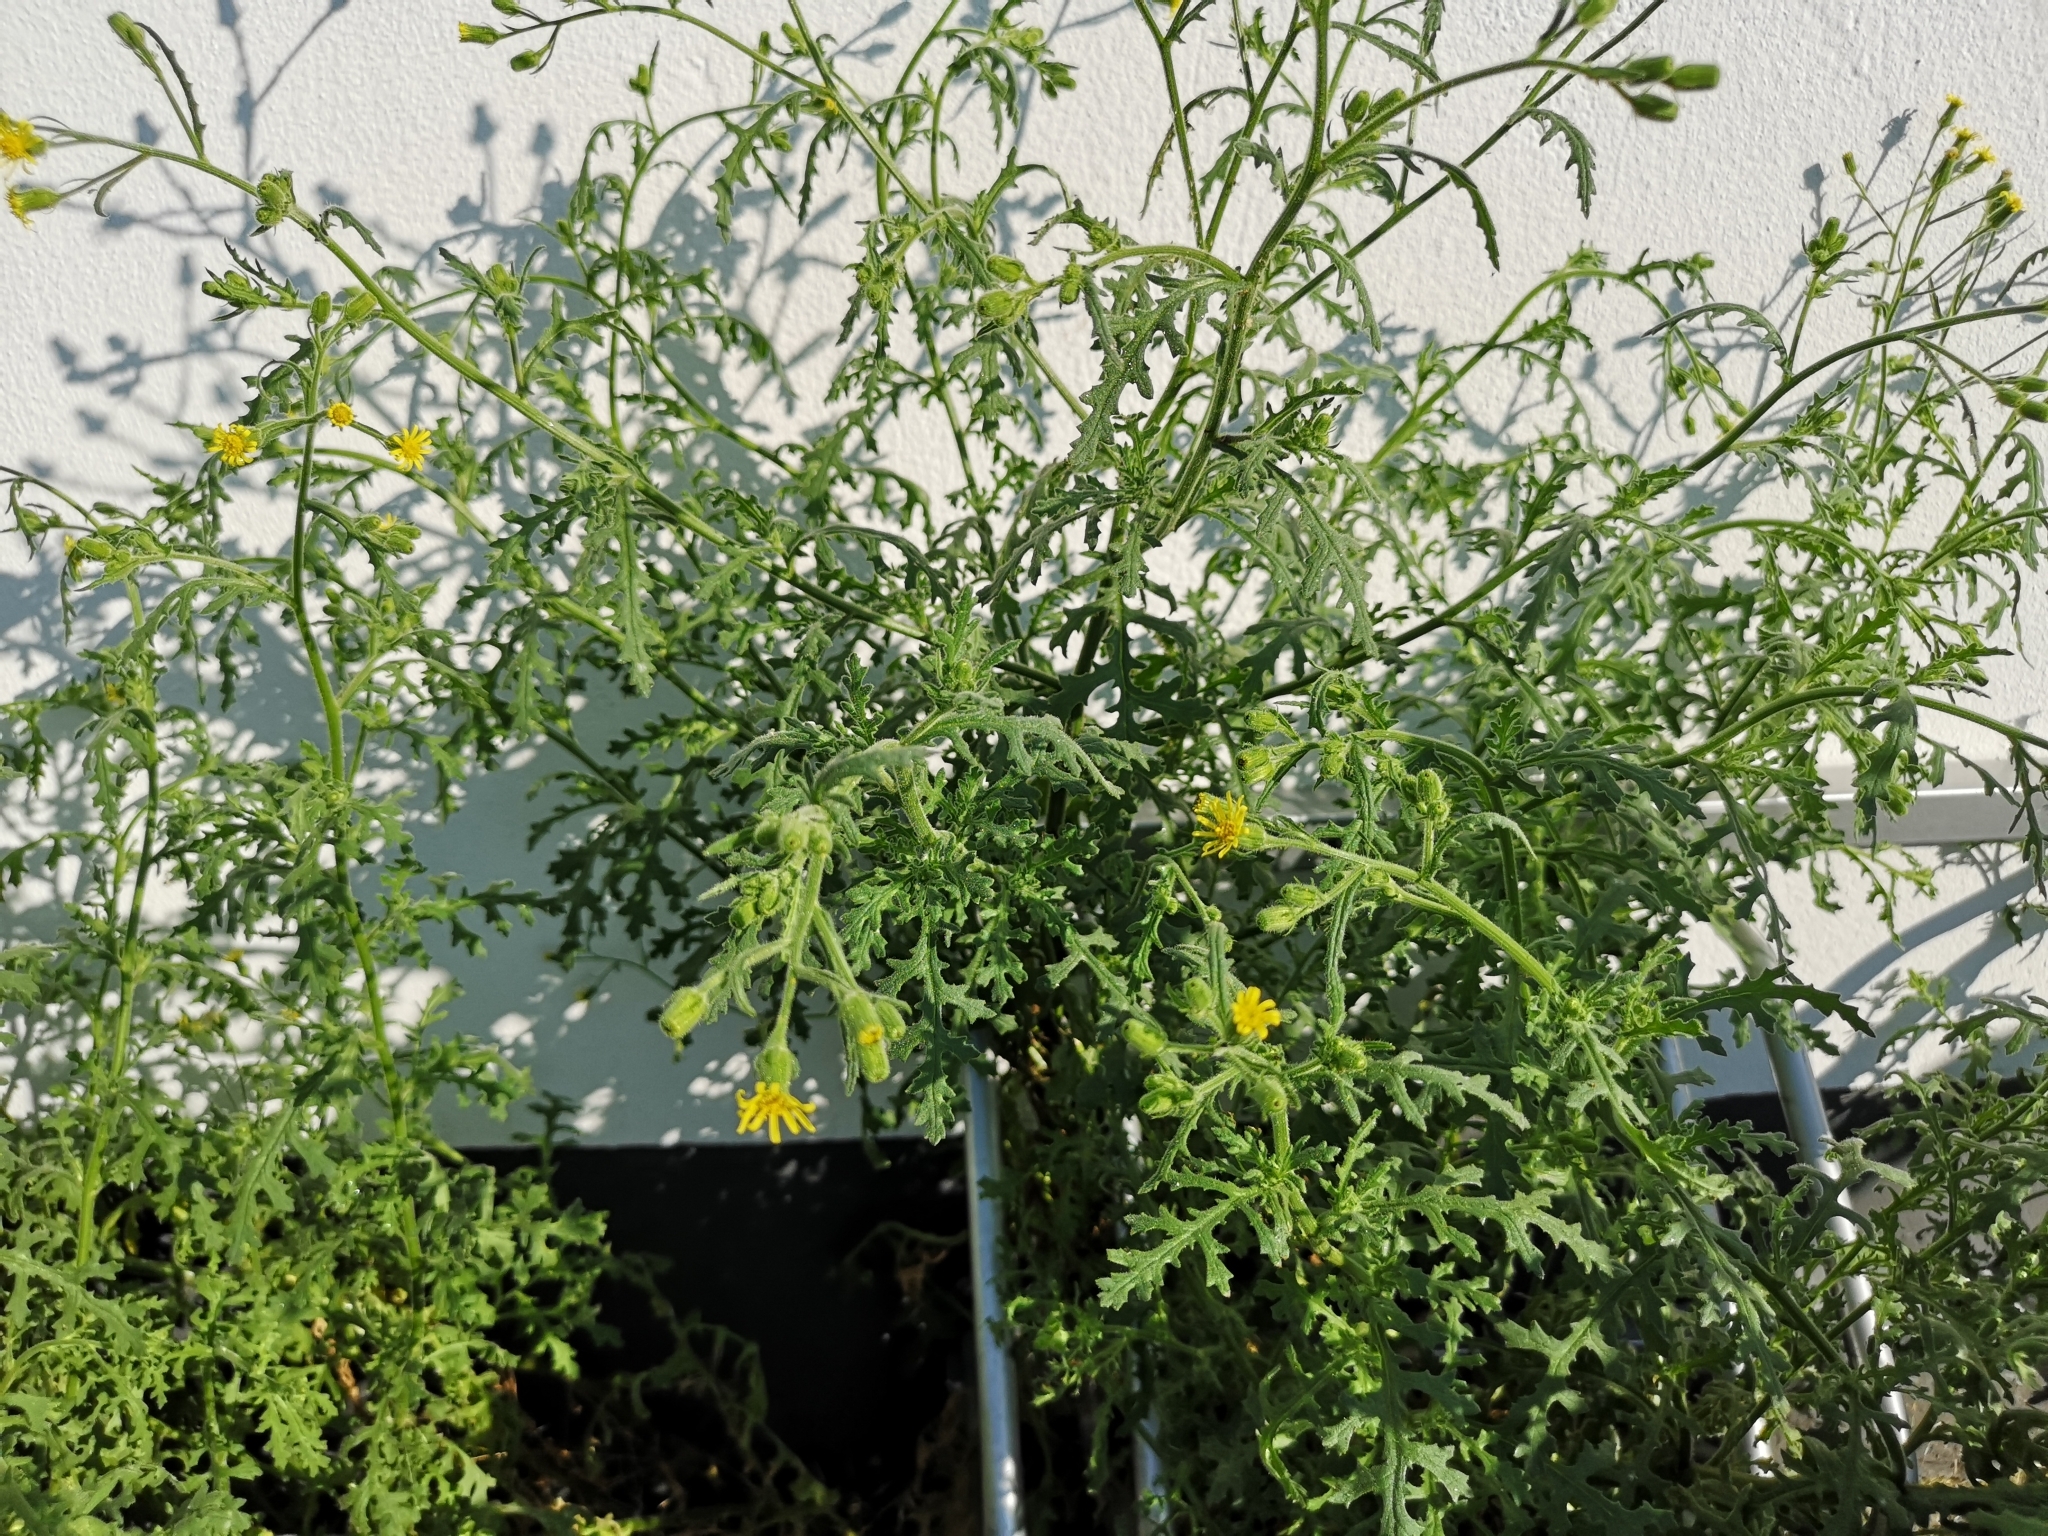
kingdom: Plantae
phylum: Tracheophyta
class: Magnoliopsida
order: Asterales
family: Asteraceae
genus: Senecio
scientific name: Senecio viscosus
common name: Sticky groundsel
